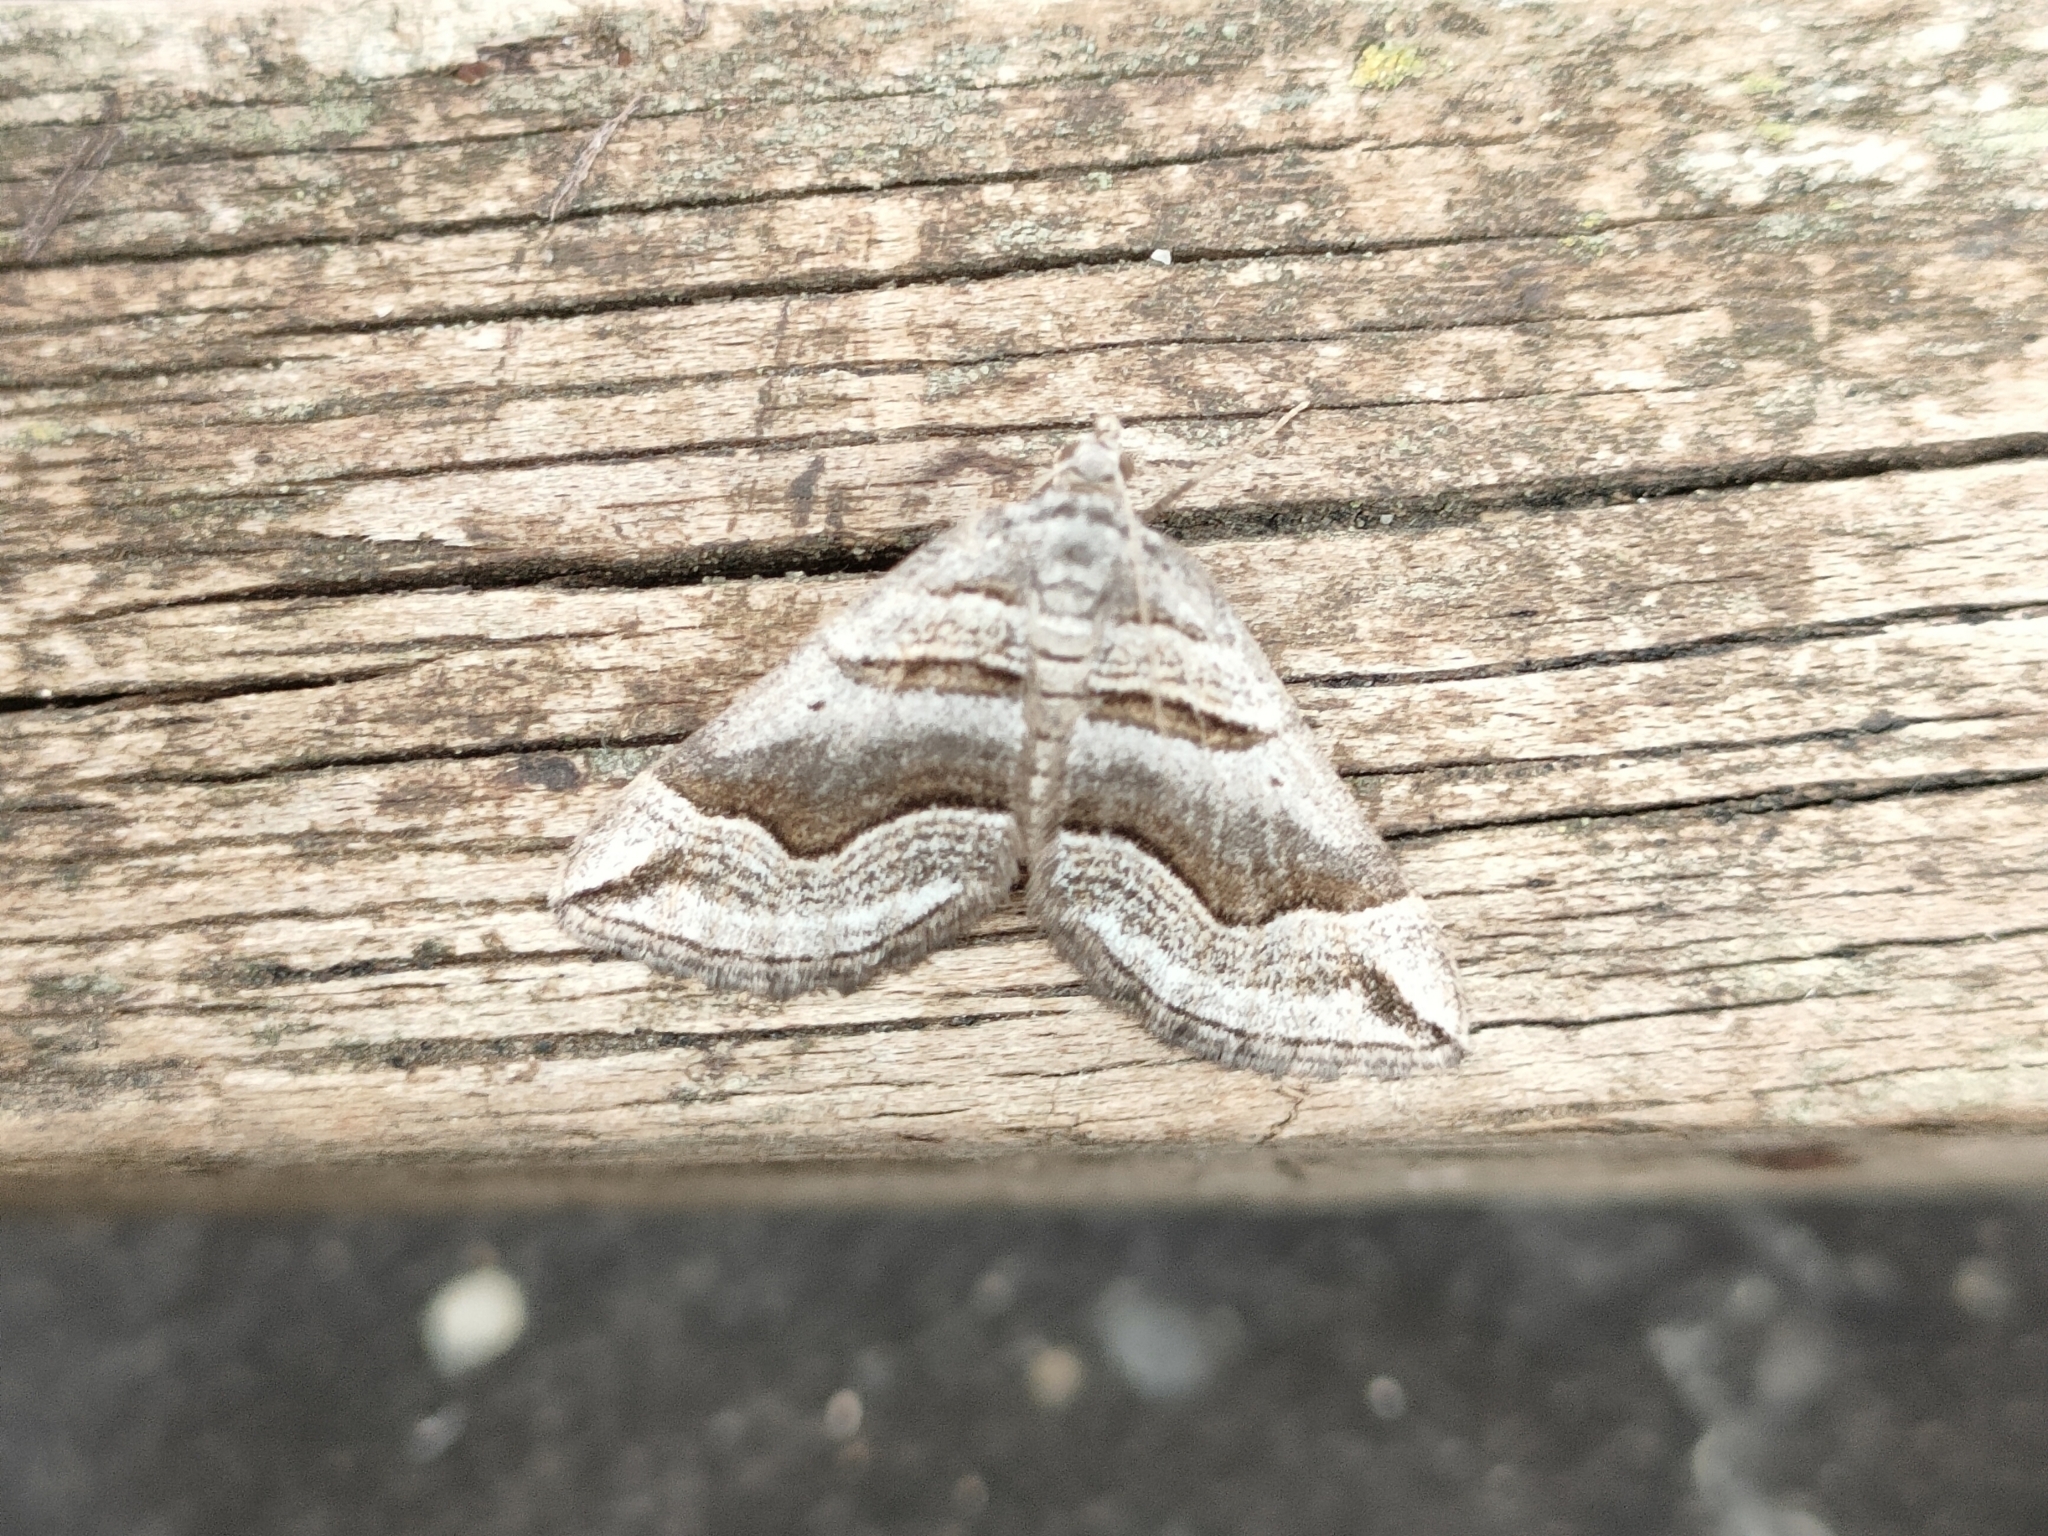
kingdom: Animalia
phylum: Arthropoda
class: Insecta
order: Lepidoptera
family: Geometridae
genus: Scotopteryx
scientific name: Scotopteryx peribolata
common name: Spanish carpet
